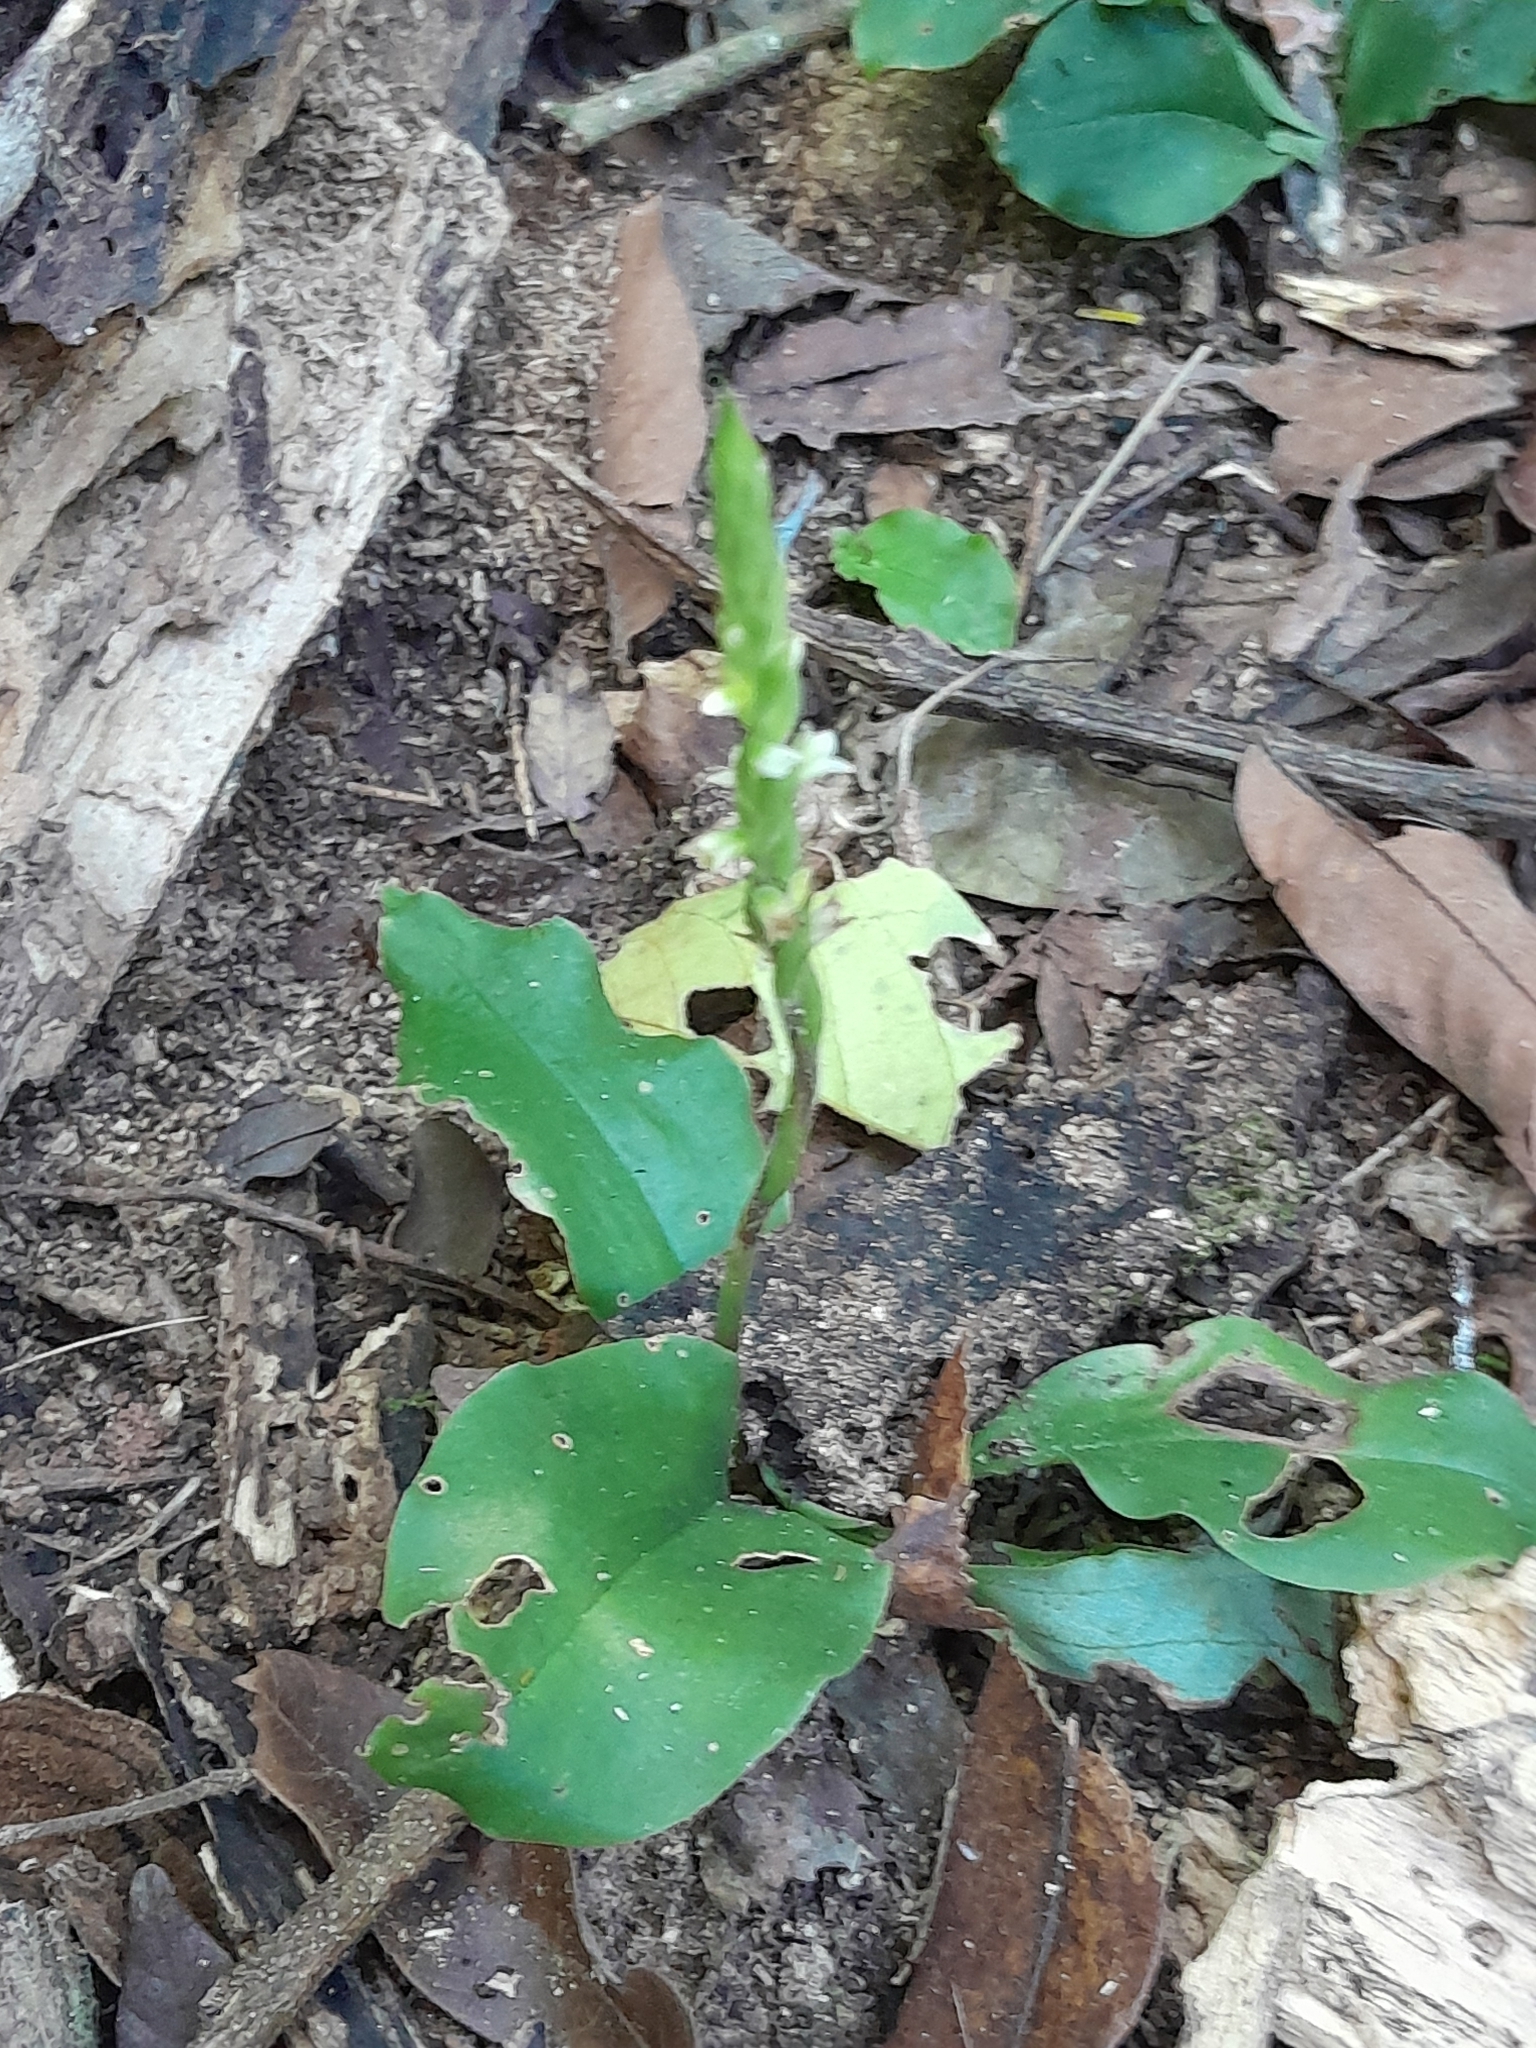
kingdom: Plantae
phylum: Tracheophyta
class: Liliopsida
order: Asparagales
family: Orchidaceae
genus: Mesadenella
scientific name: Mesadenella cuspidata
